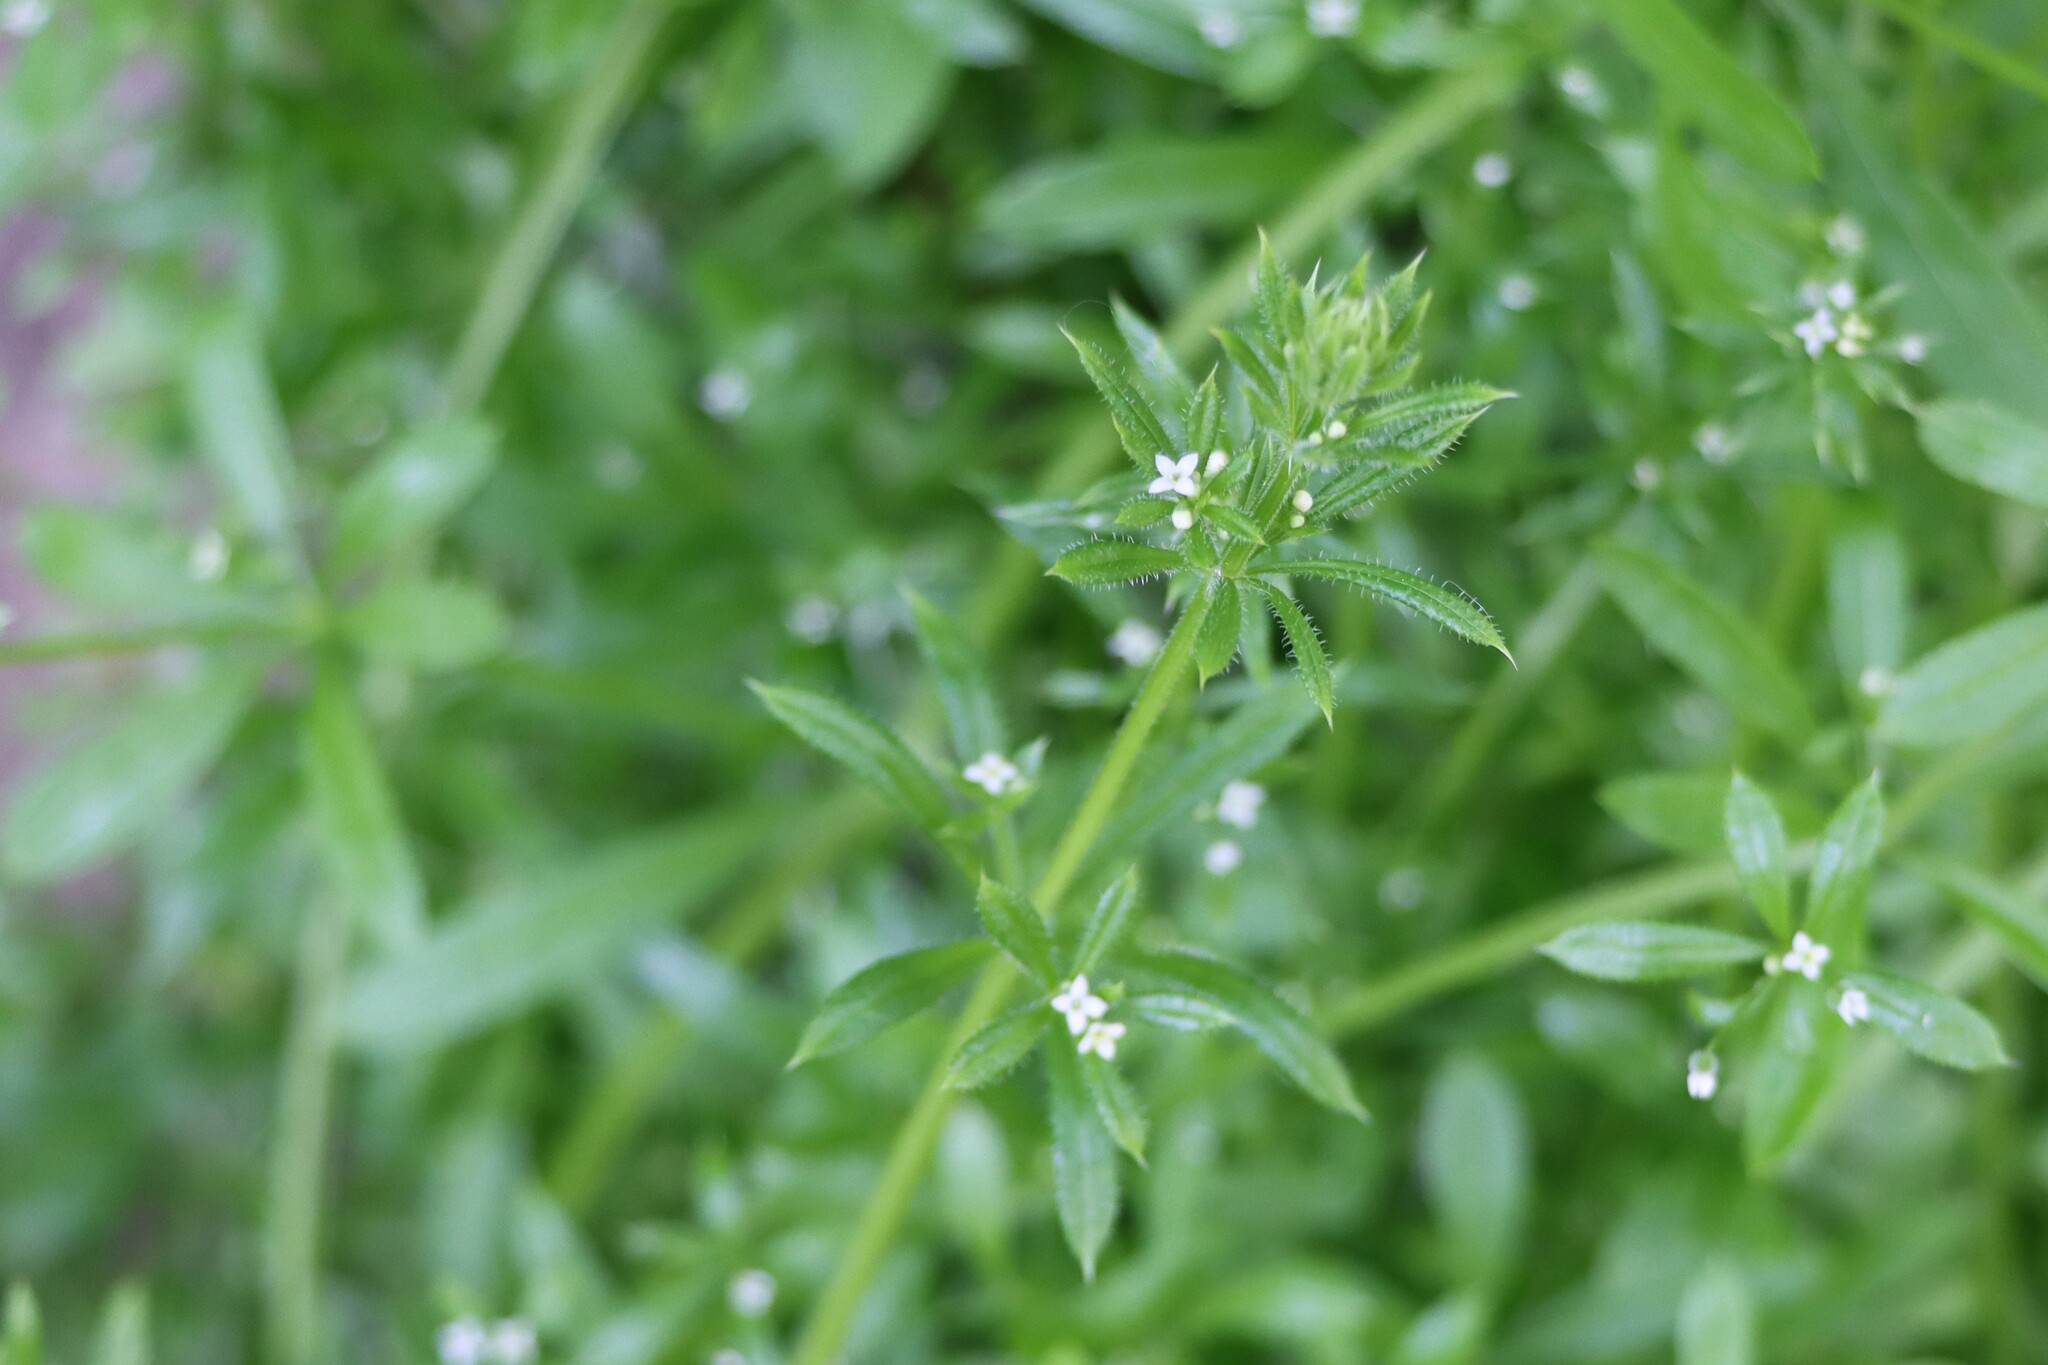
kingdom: Plantae
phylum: Tracheophyta
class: Magnoliopsida
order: Gentianales
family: Rubiaceae
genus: Galium
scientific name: Galium aparine
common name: Cleavers
